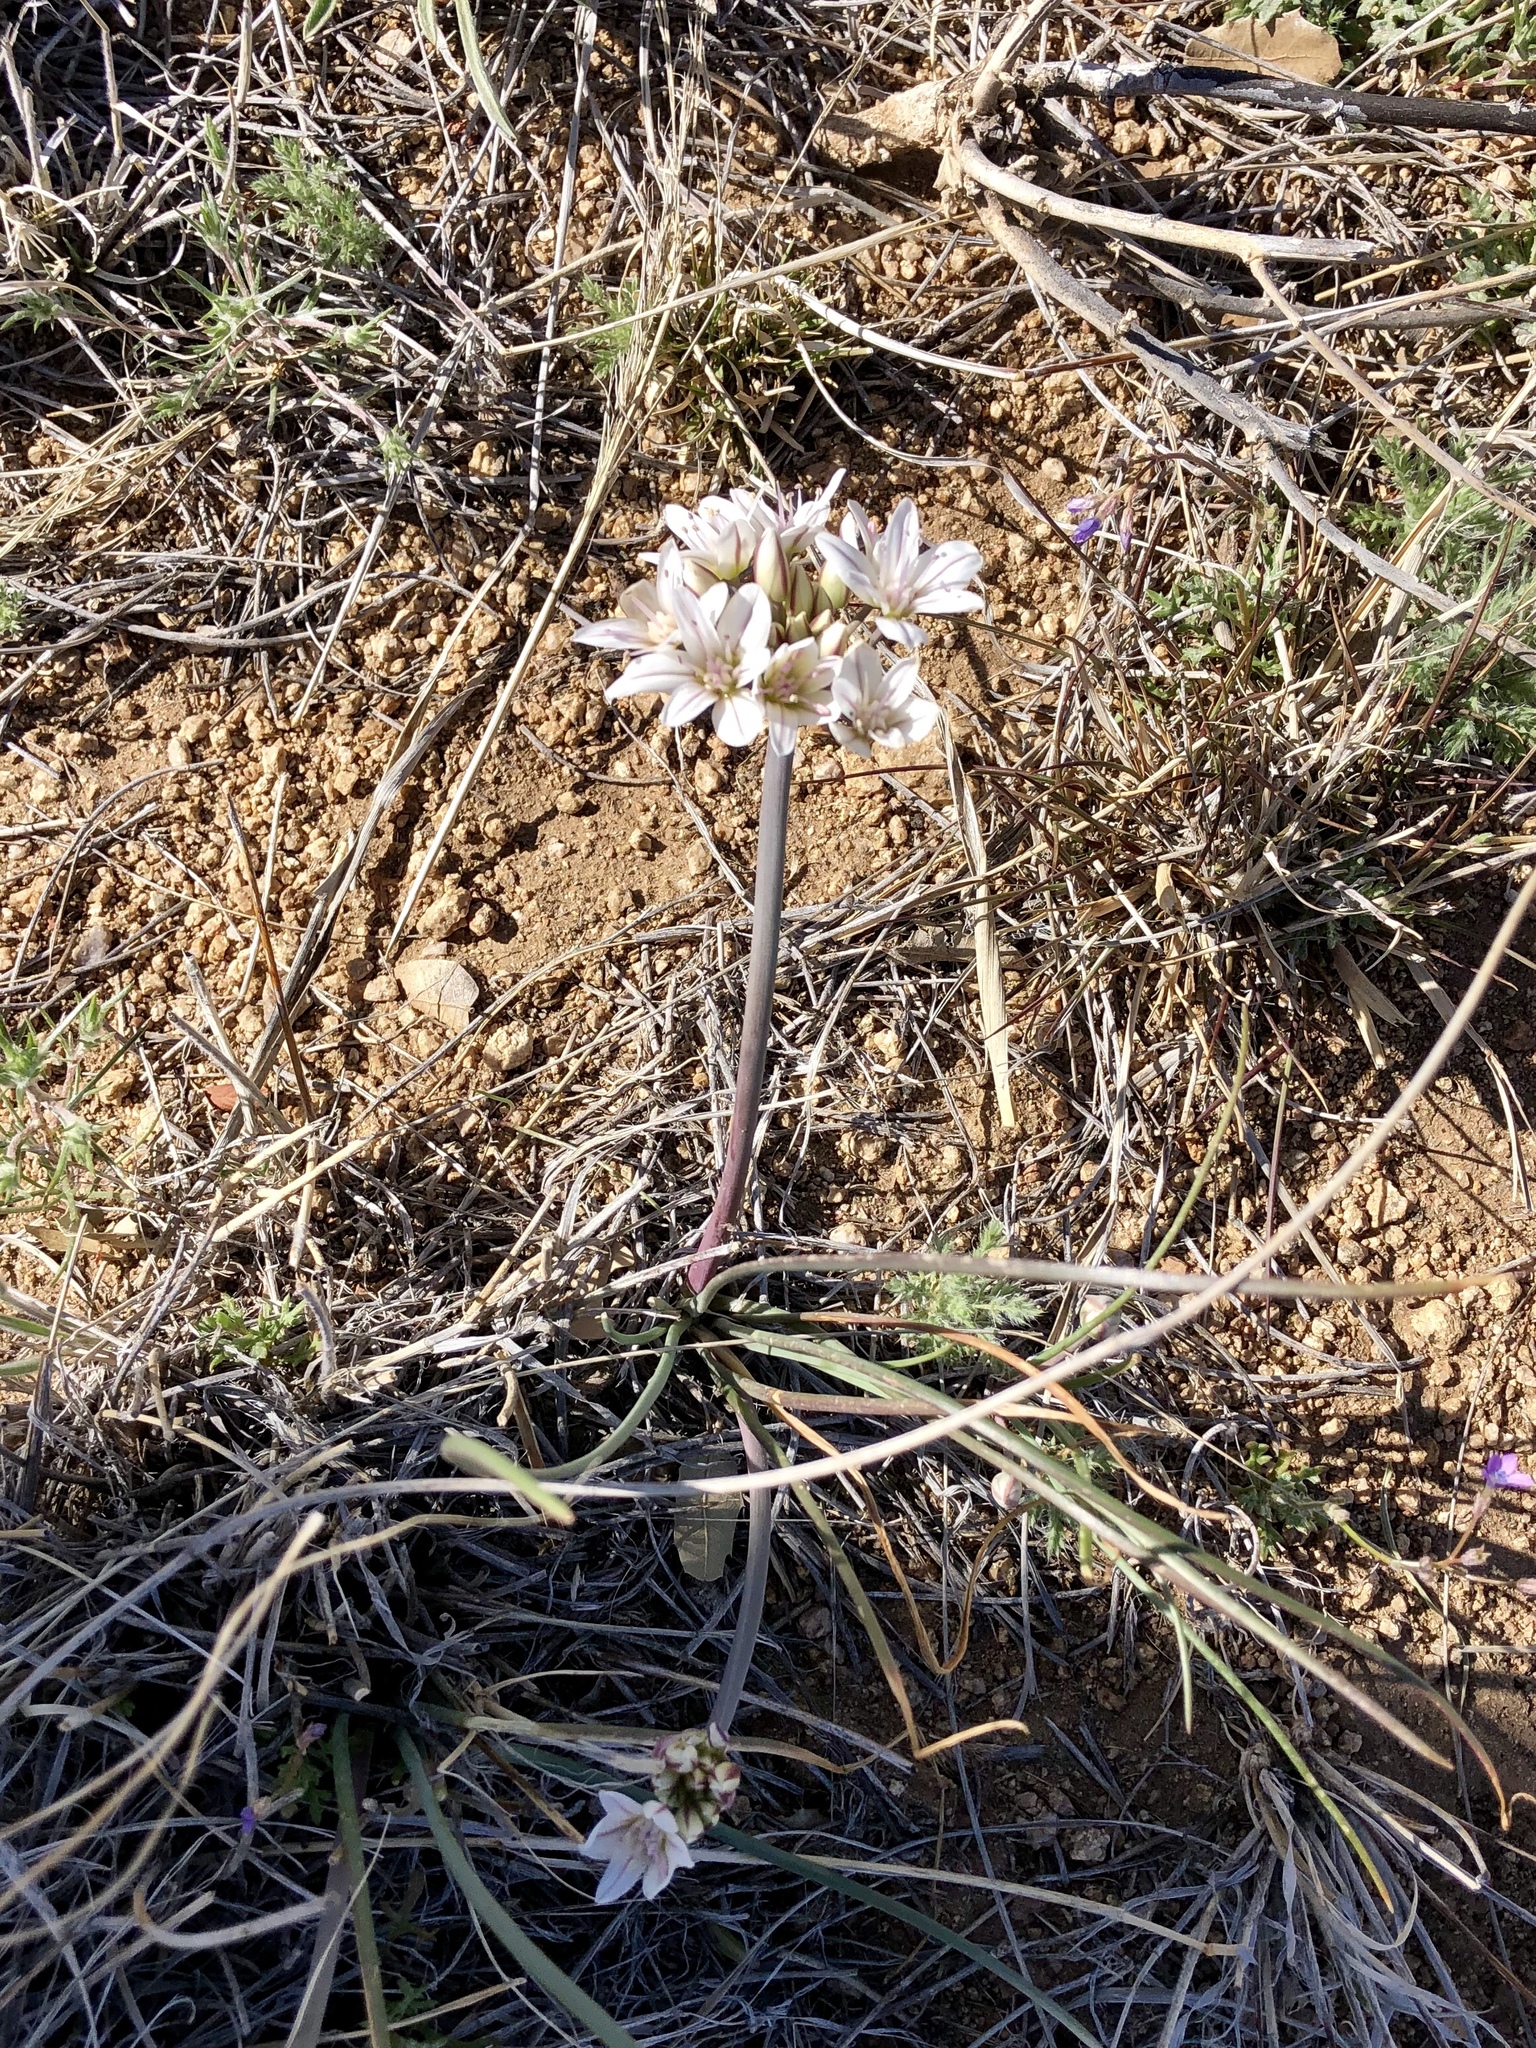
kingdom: Plantae
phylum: Tracheophyta
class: Liliopsida
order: Asparagales
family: Amaryllidaceae
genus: Allium
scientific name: Allium macropetalum
